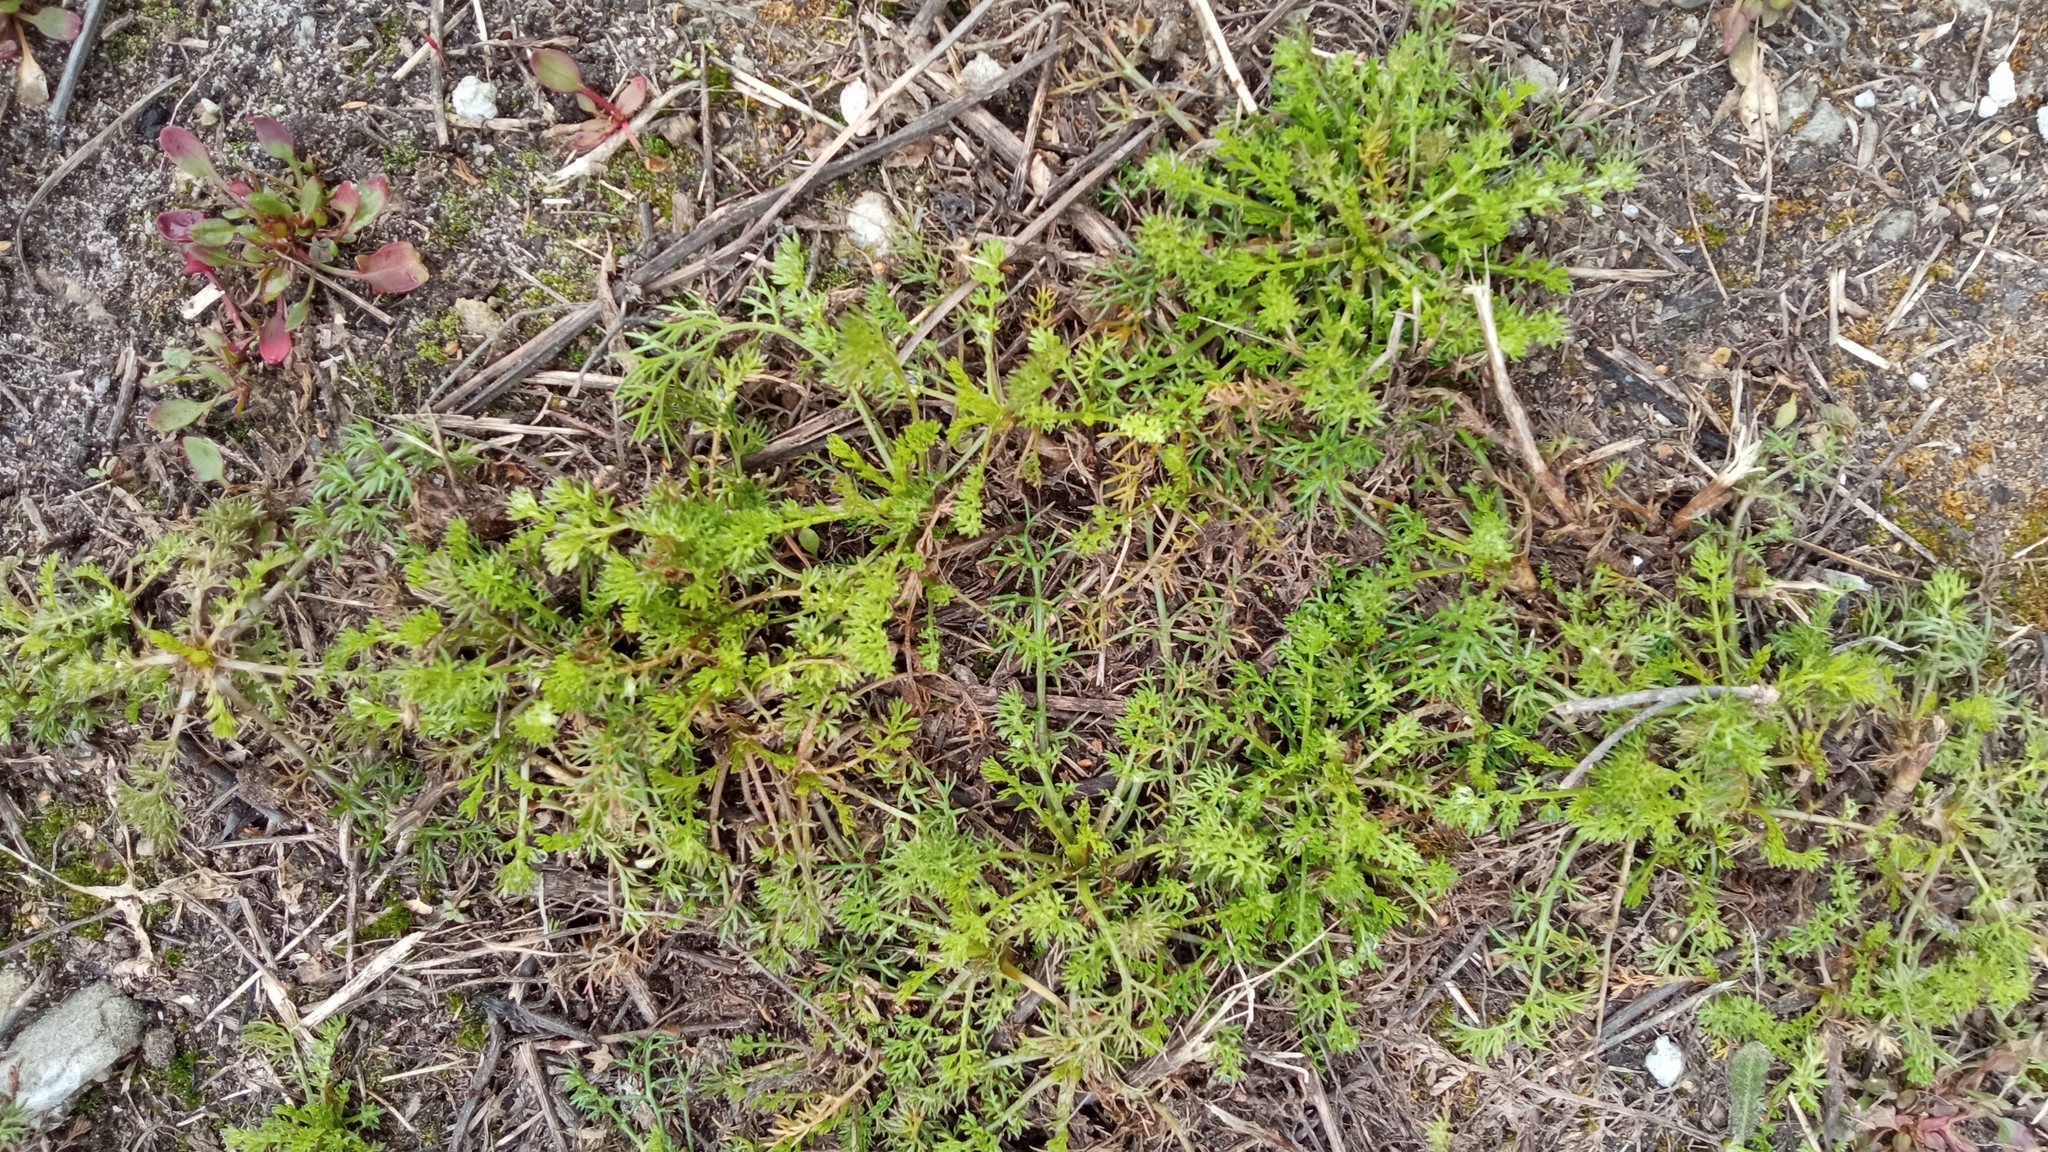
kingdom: Plantae
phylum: Tracheophyta
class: Magnoliopsida
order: Asterales
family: Asteraceae
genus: Matricaria
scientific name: Matricaria discoidea
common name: Disc mayweed
